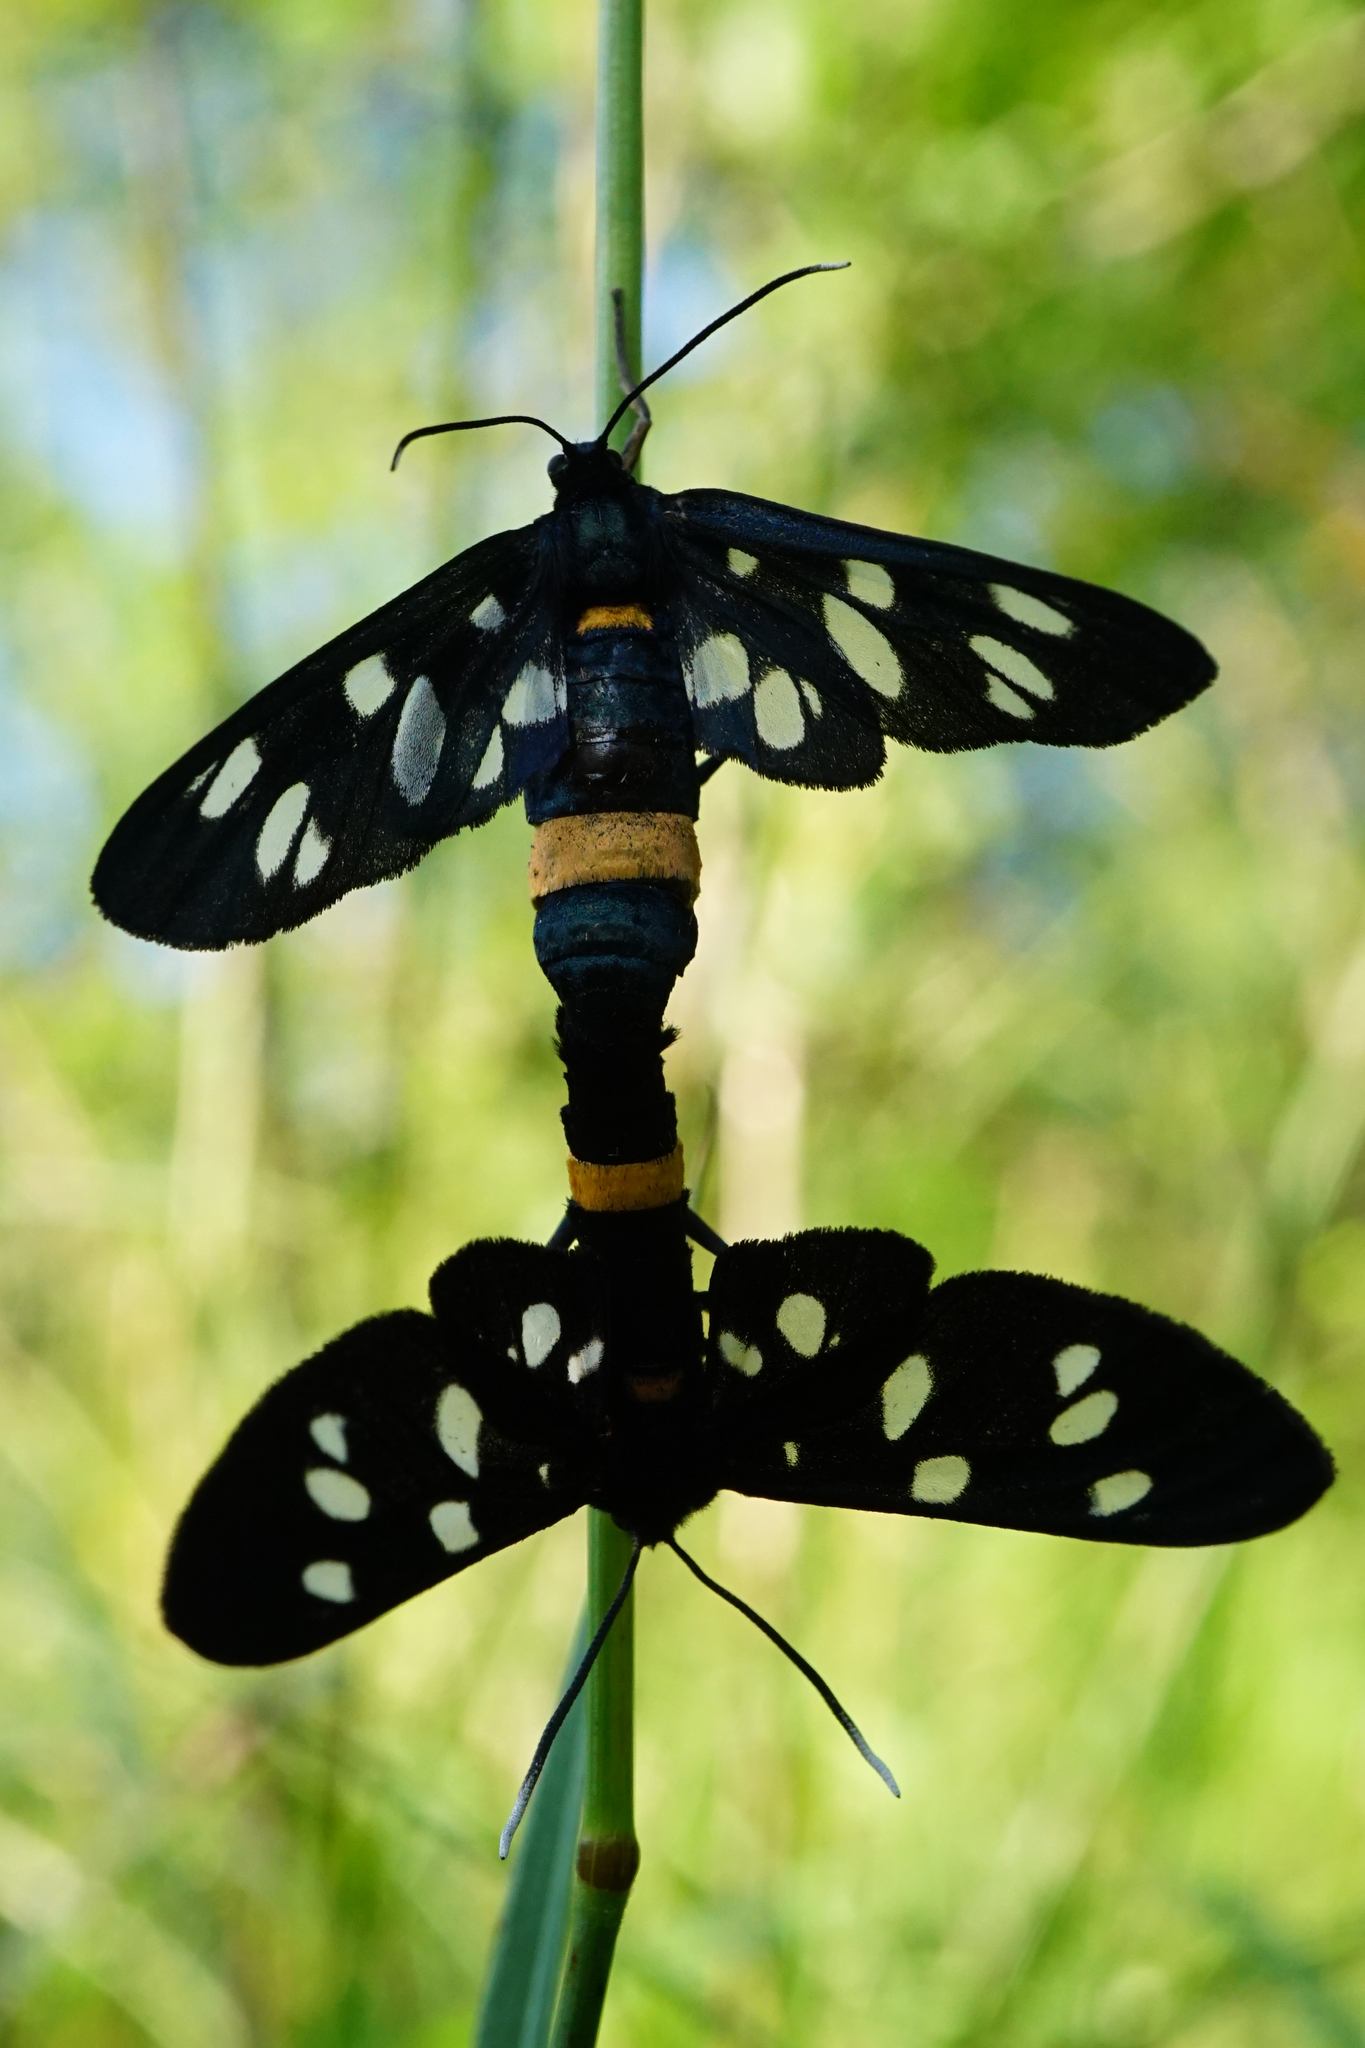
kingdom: Animalia
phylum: Arthropoda
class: Insecta
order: Lepidoptera
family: Erebidae
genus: Amata
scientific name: Amata phegea
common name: Nine-spotted
